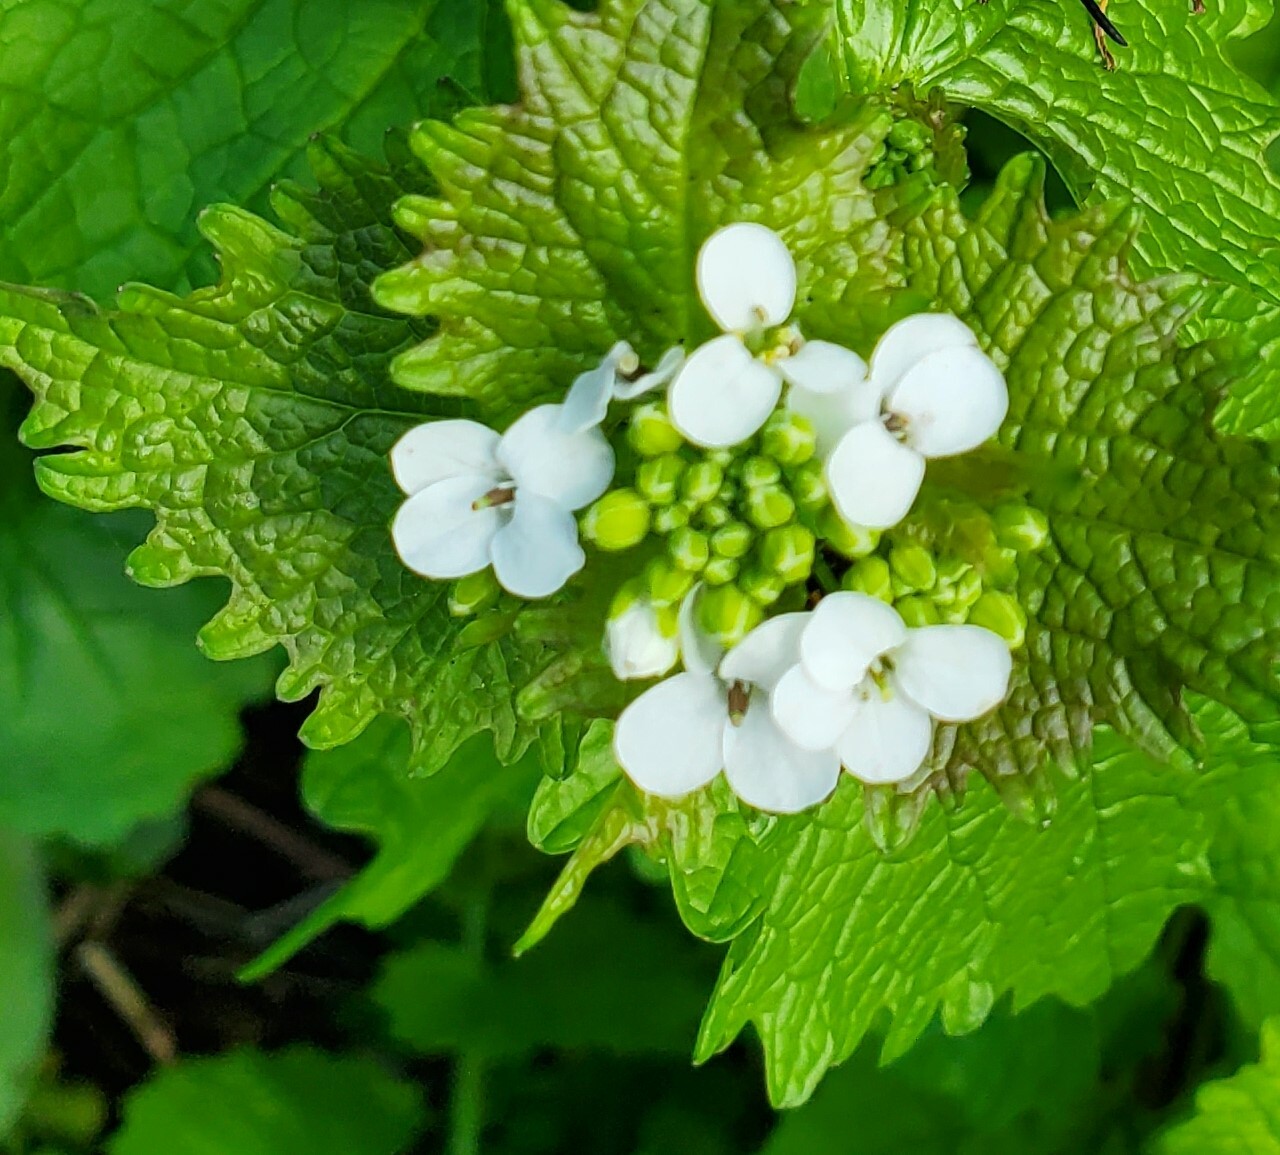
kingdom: Plantae
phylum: Tracheophyta
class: Magnoliopsida
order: Brassicales
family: Brassicaceae
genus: Alliaria
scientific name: Alliaria petiolata
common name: Garlic mustard
